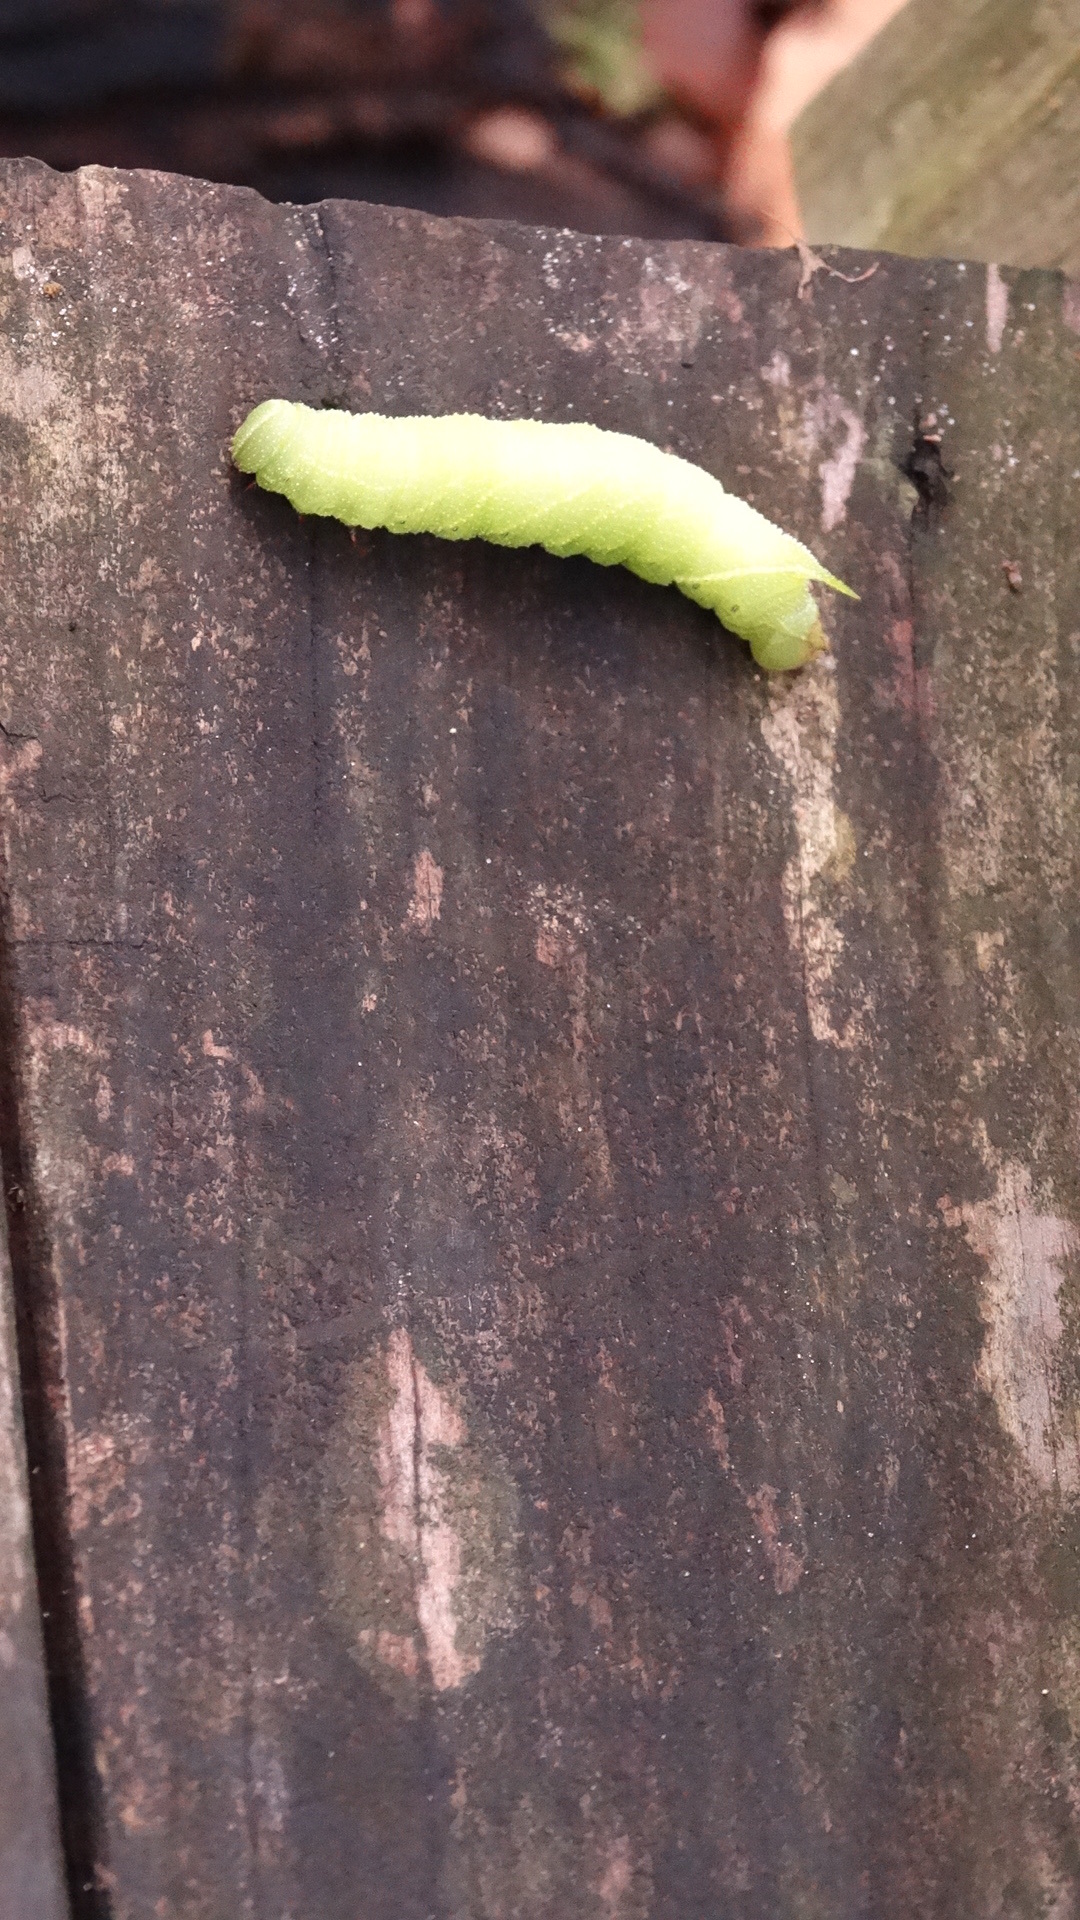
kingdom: Animalia
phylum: Arthropoda
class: Insecta
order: Lepidoptera
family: Sphingidae
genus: Paonias
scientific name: Paonias excaecata
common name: Blind-eyed sphinx
